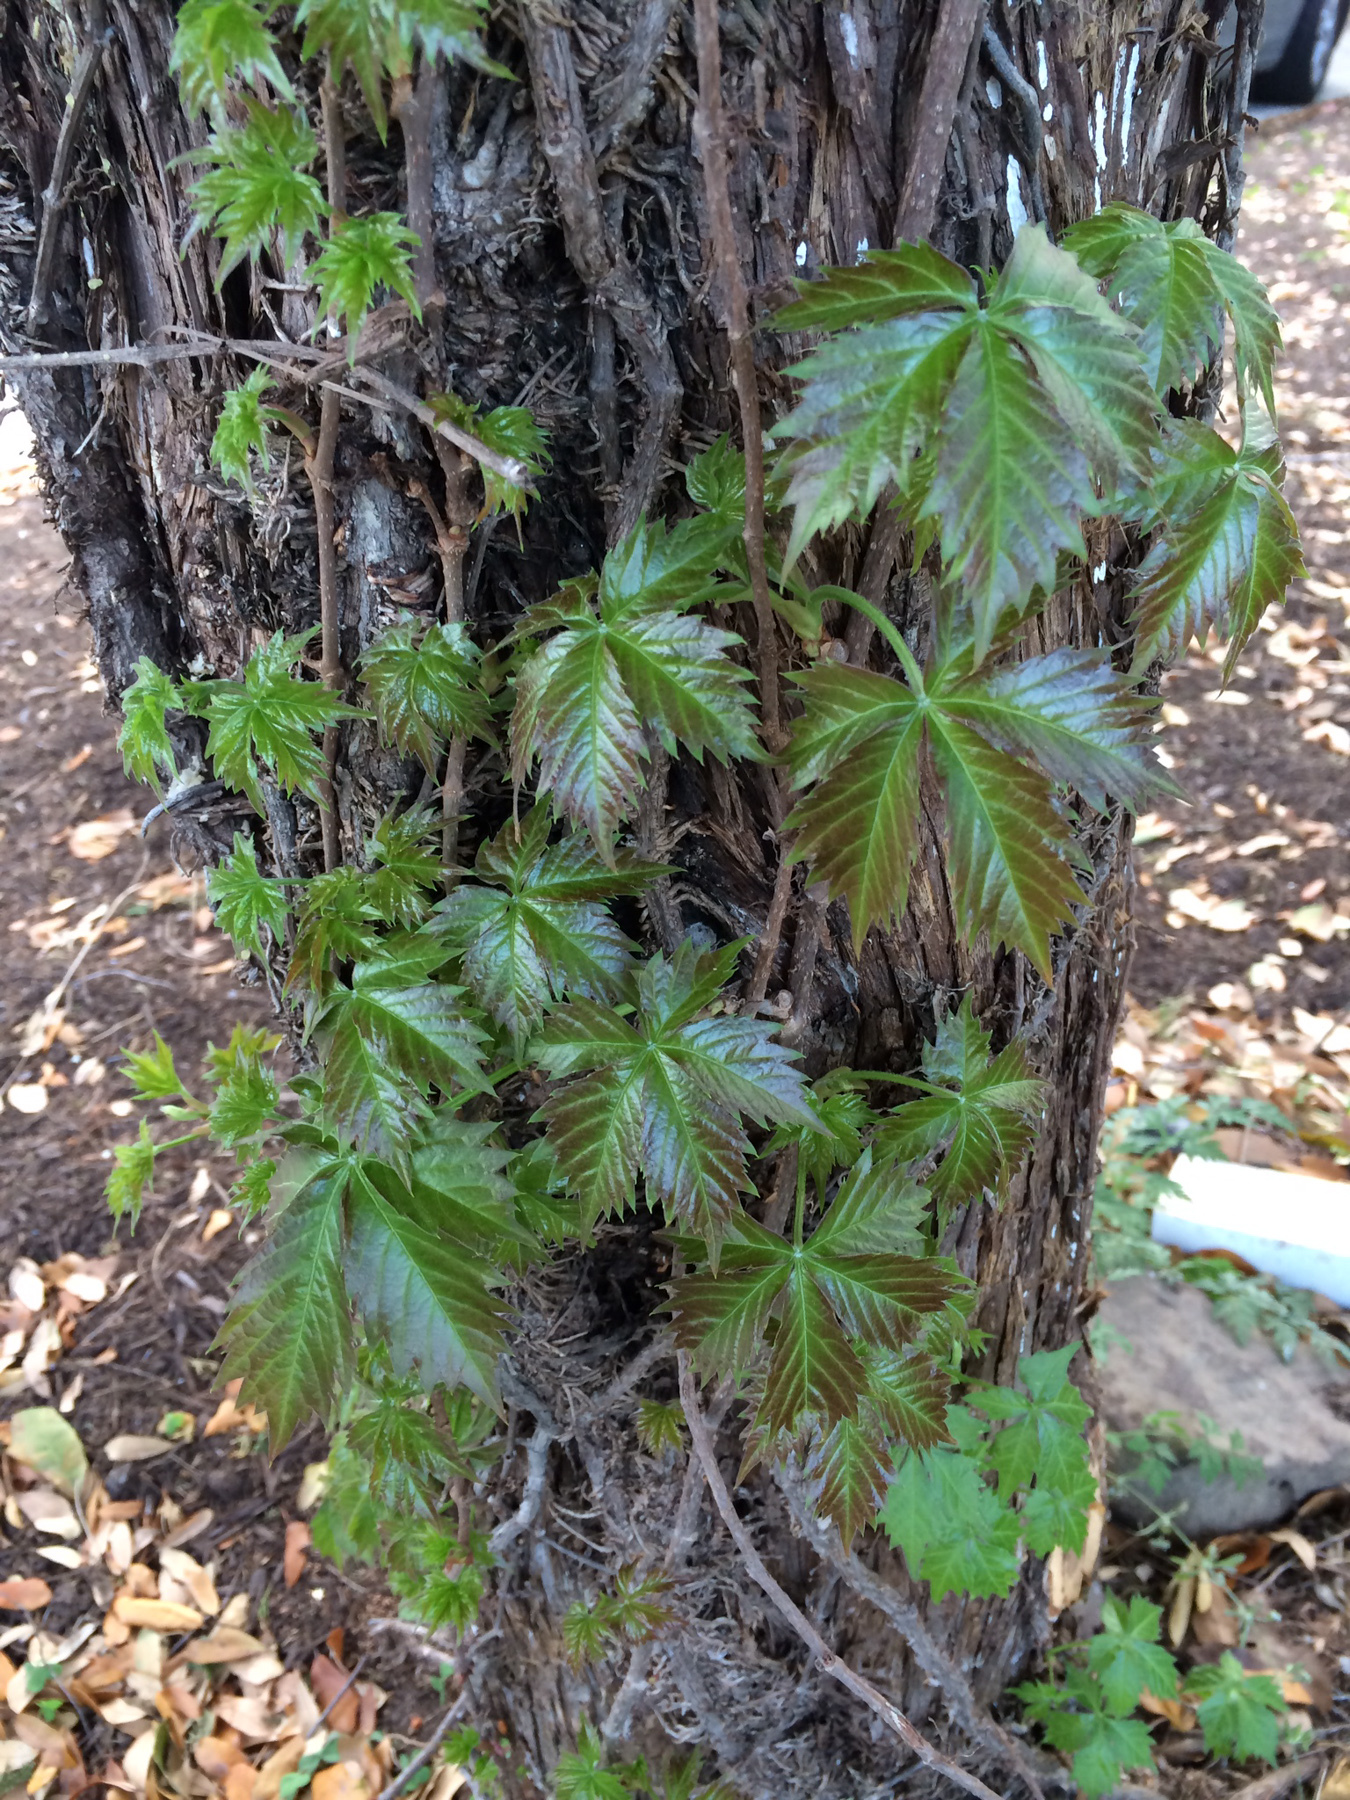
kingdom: Plantae
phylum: Tracheophyta
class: Magnoliopsida
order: Vitales
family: Vitaceae
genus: Parthenocissus
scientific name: Parthenocissus quinquefolia
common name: Virginia-creeper
